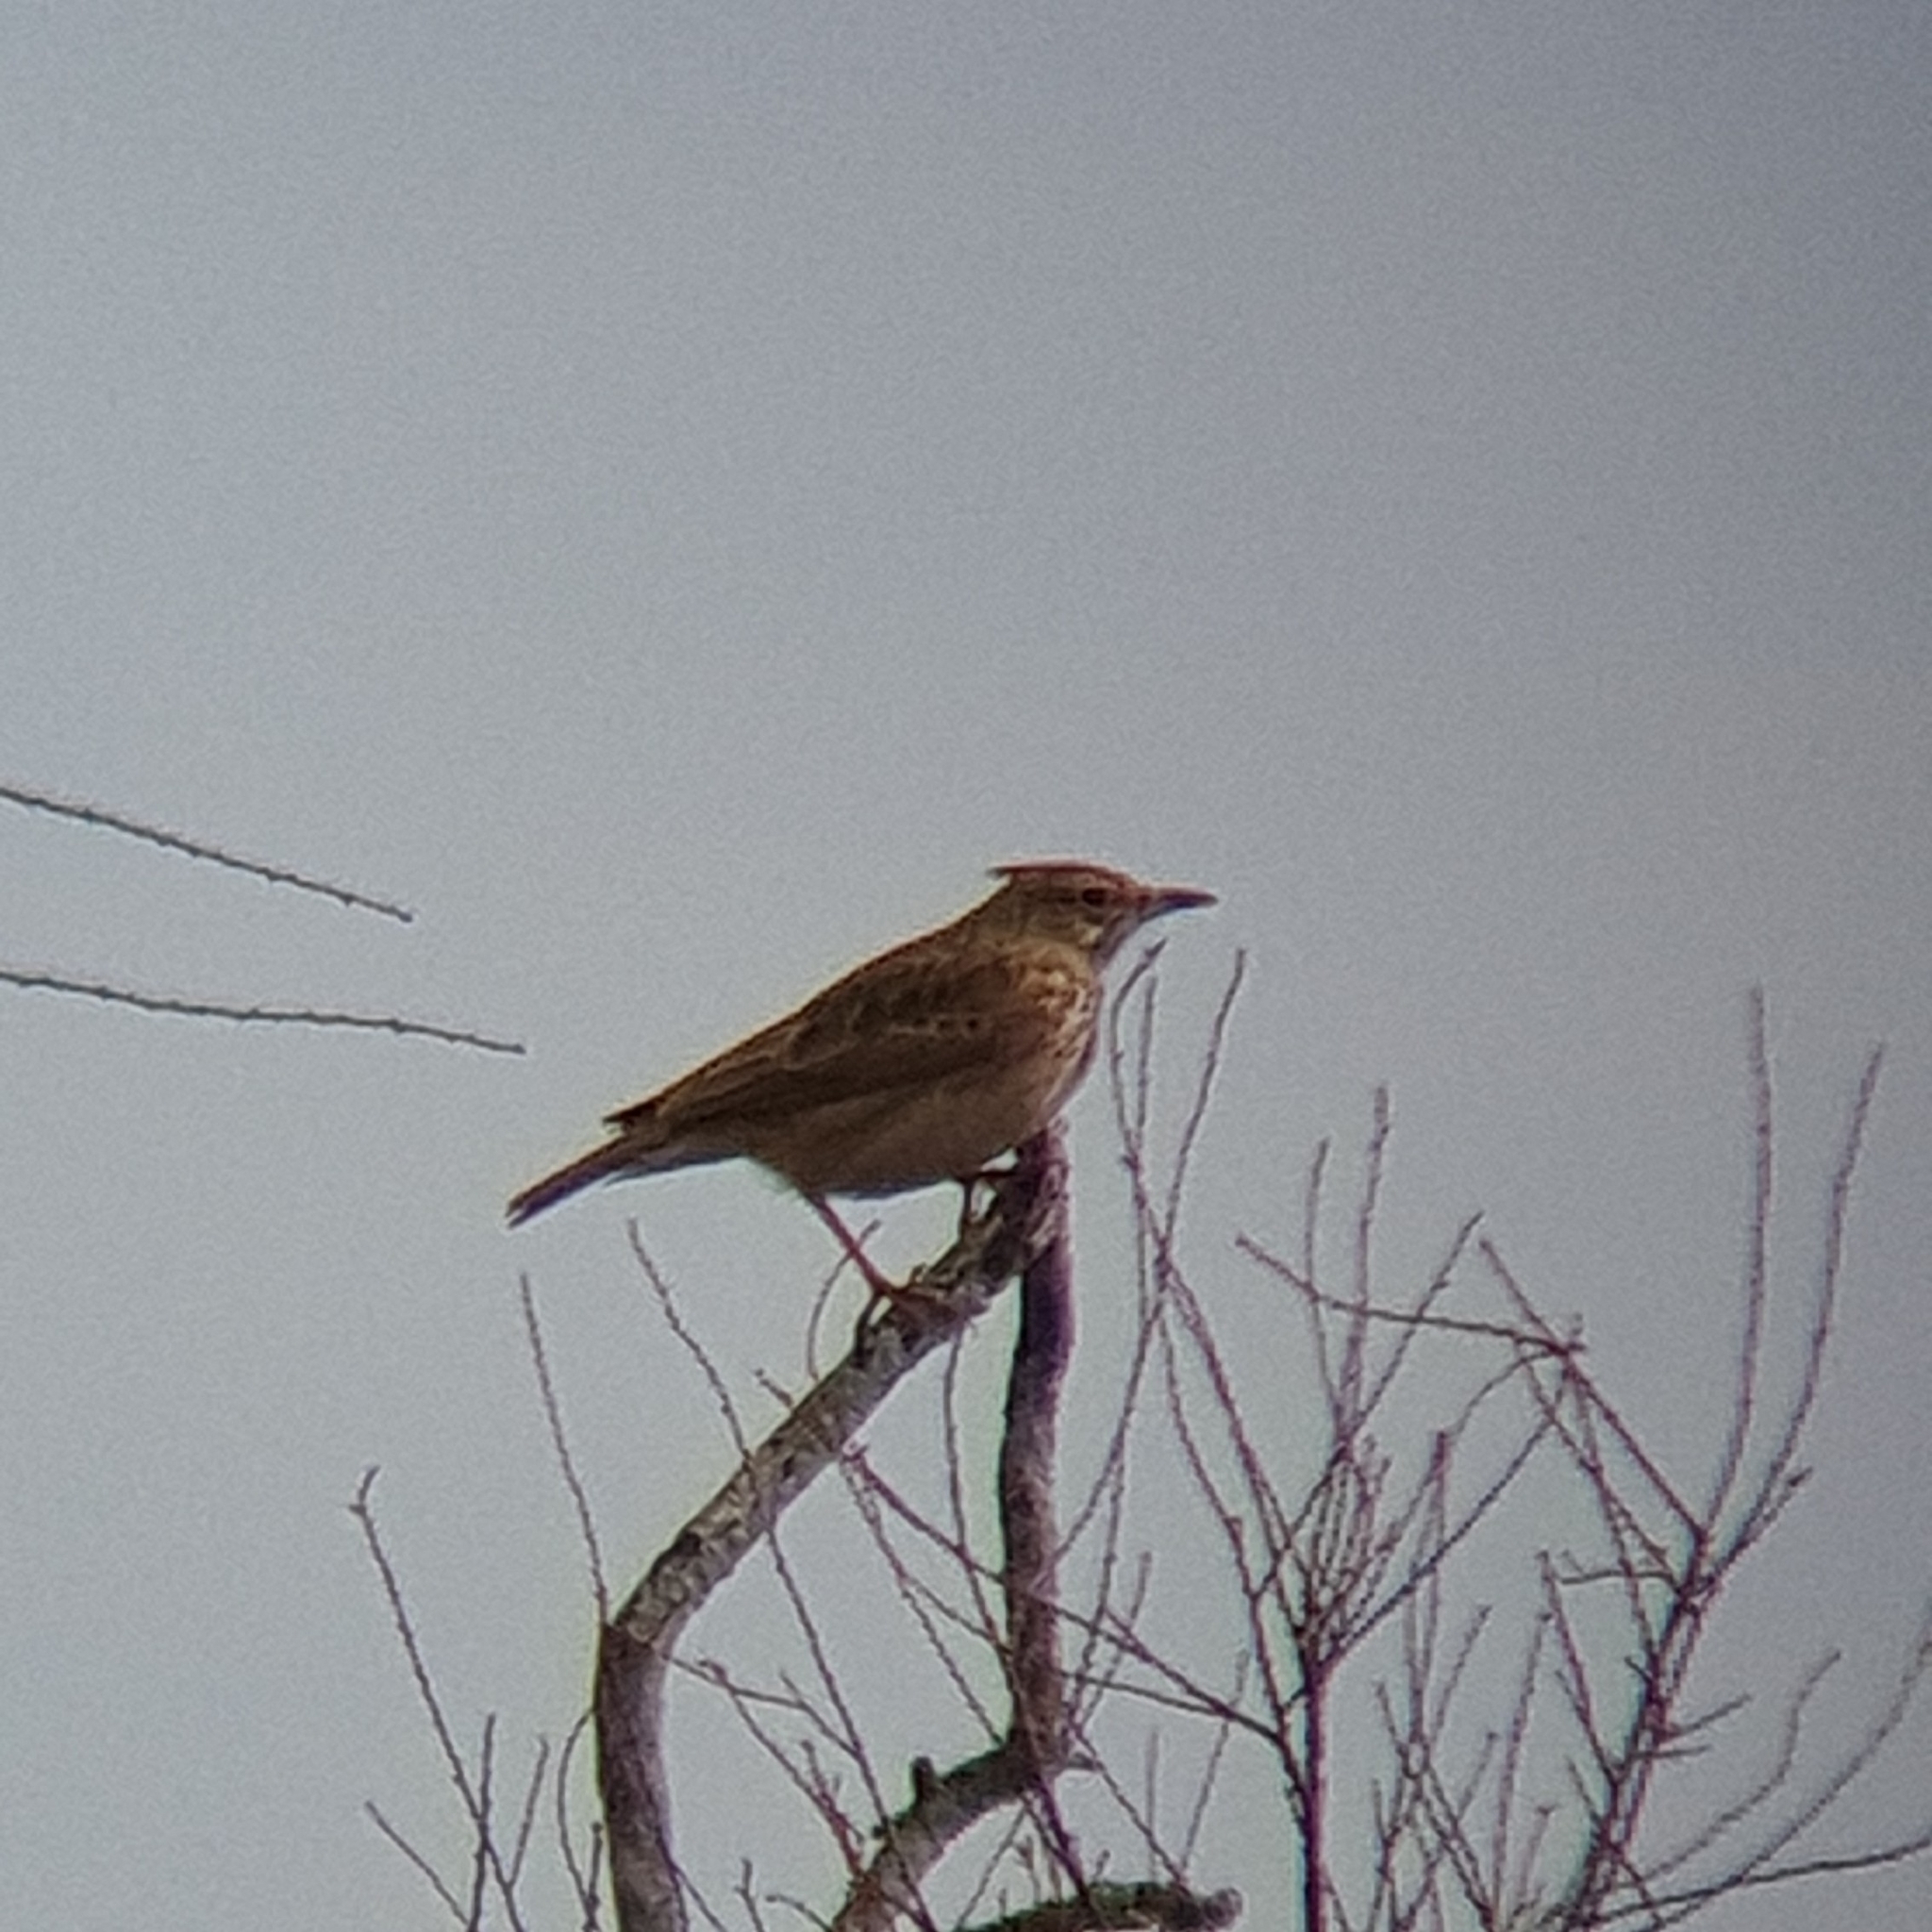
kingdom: Animalia
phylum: Chordata
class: Aves
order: Passeriformes
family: Alaudidae
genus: Galerida
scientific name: Galerida cristata
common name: Crested lark
